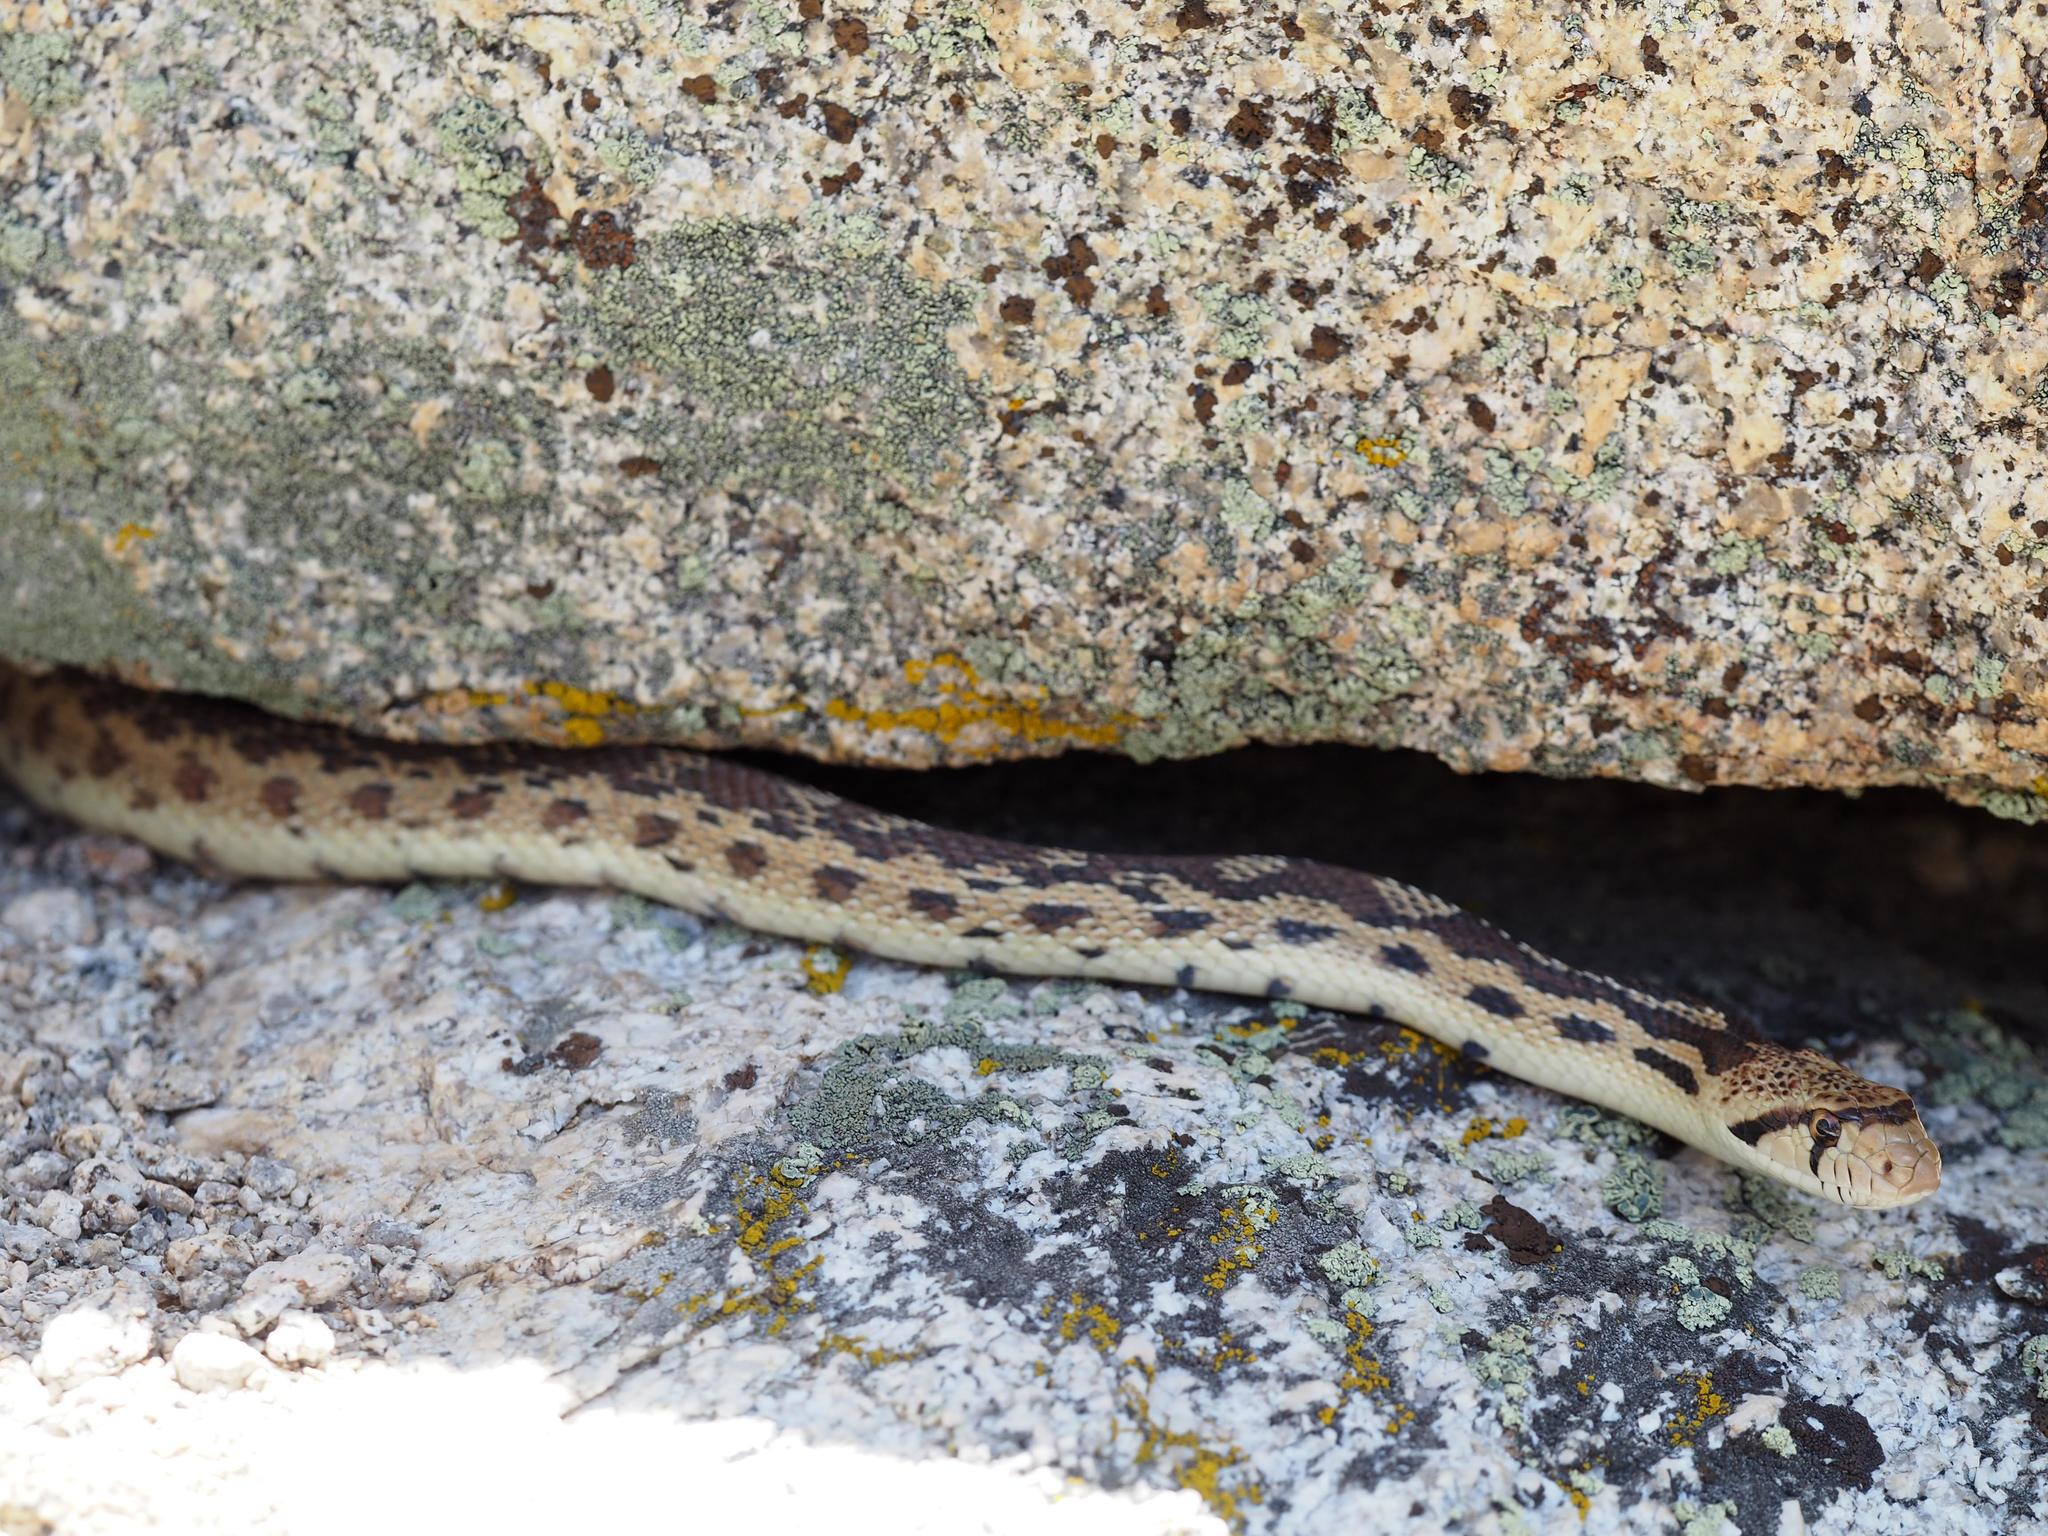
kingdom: Animalia
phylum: Chordata
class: Squamata
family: Colubridae
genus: Pituophis
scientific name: Pituophis catenifer
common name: Gopher snake
